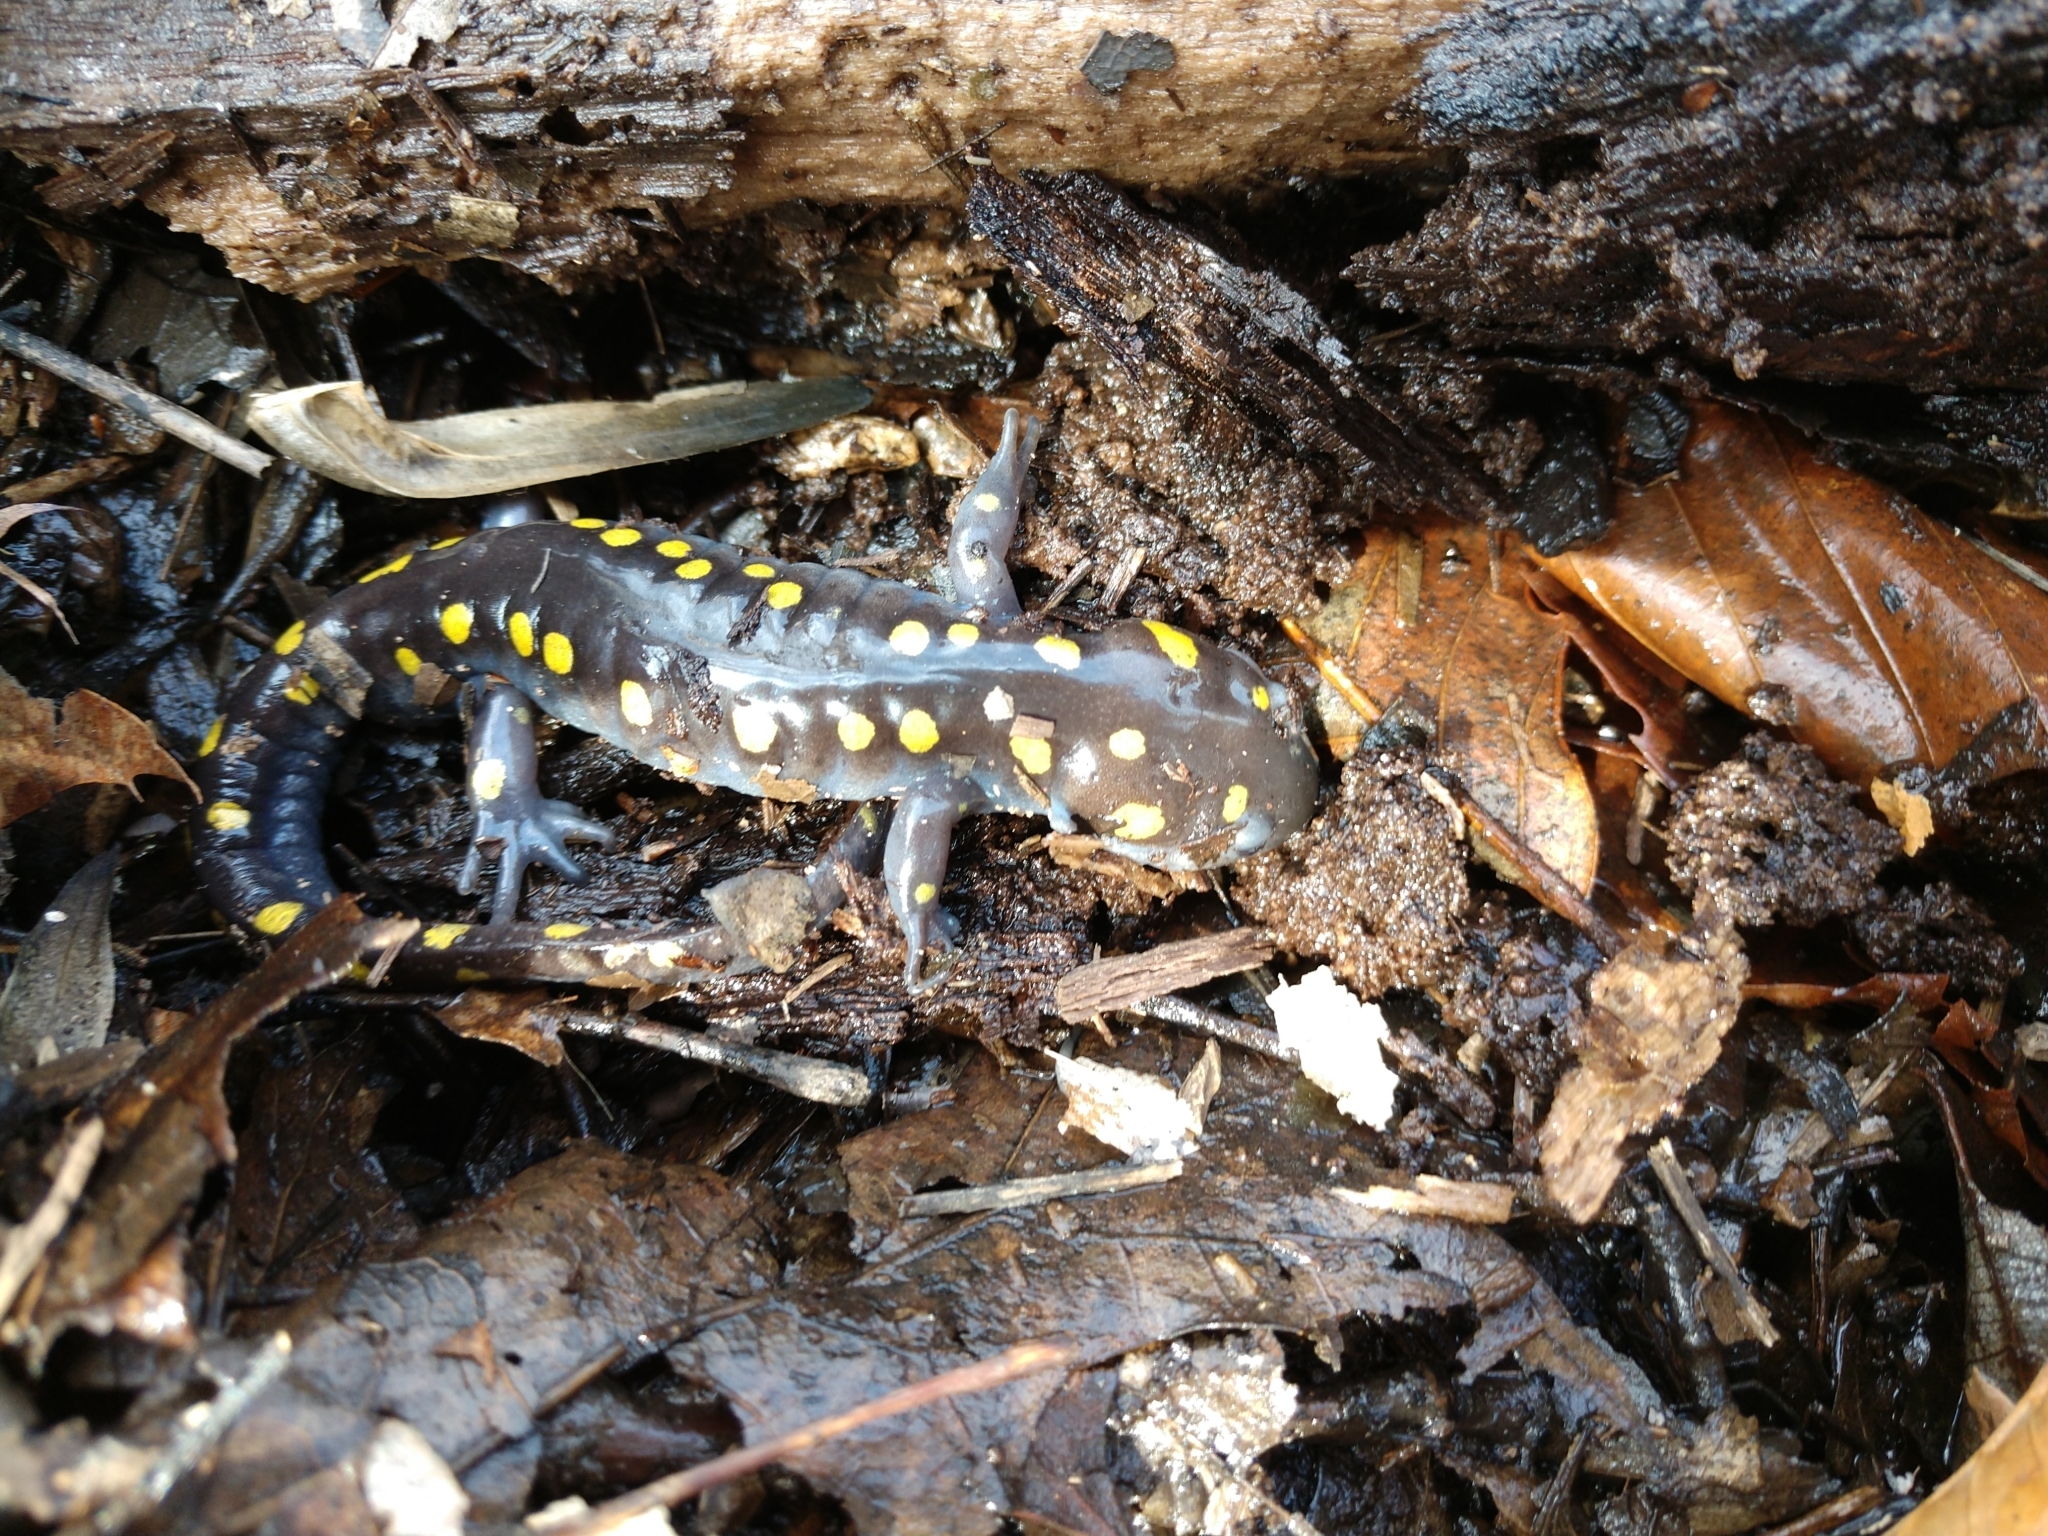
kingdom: Animalia
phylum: Chordata
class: Amphibia
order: Caudata
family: Ambystomatidae
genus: Ambystoma
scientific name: Ambystoma maculatum
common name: Spotted salamander
